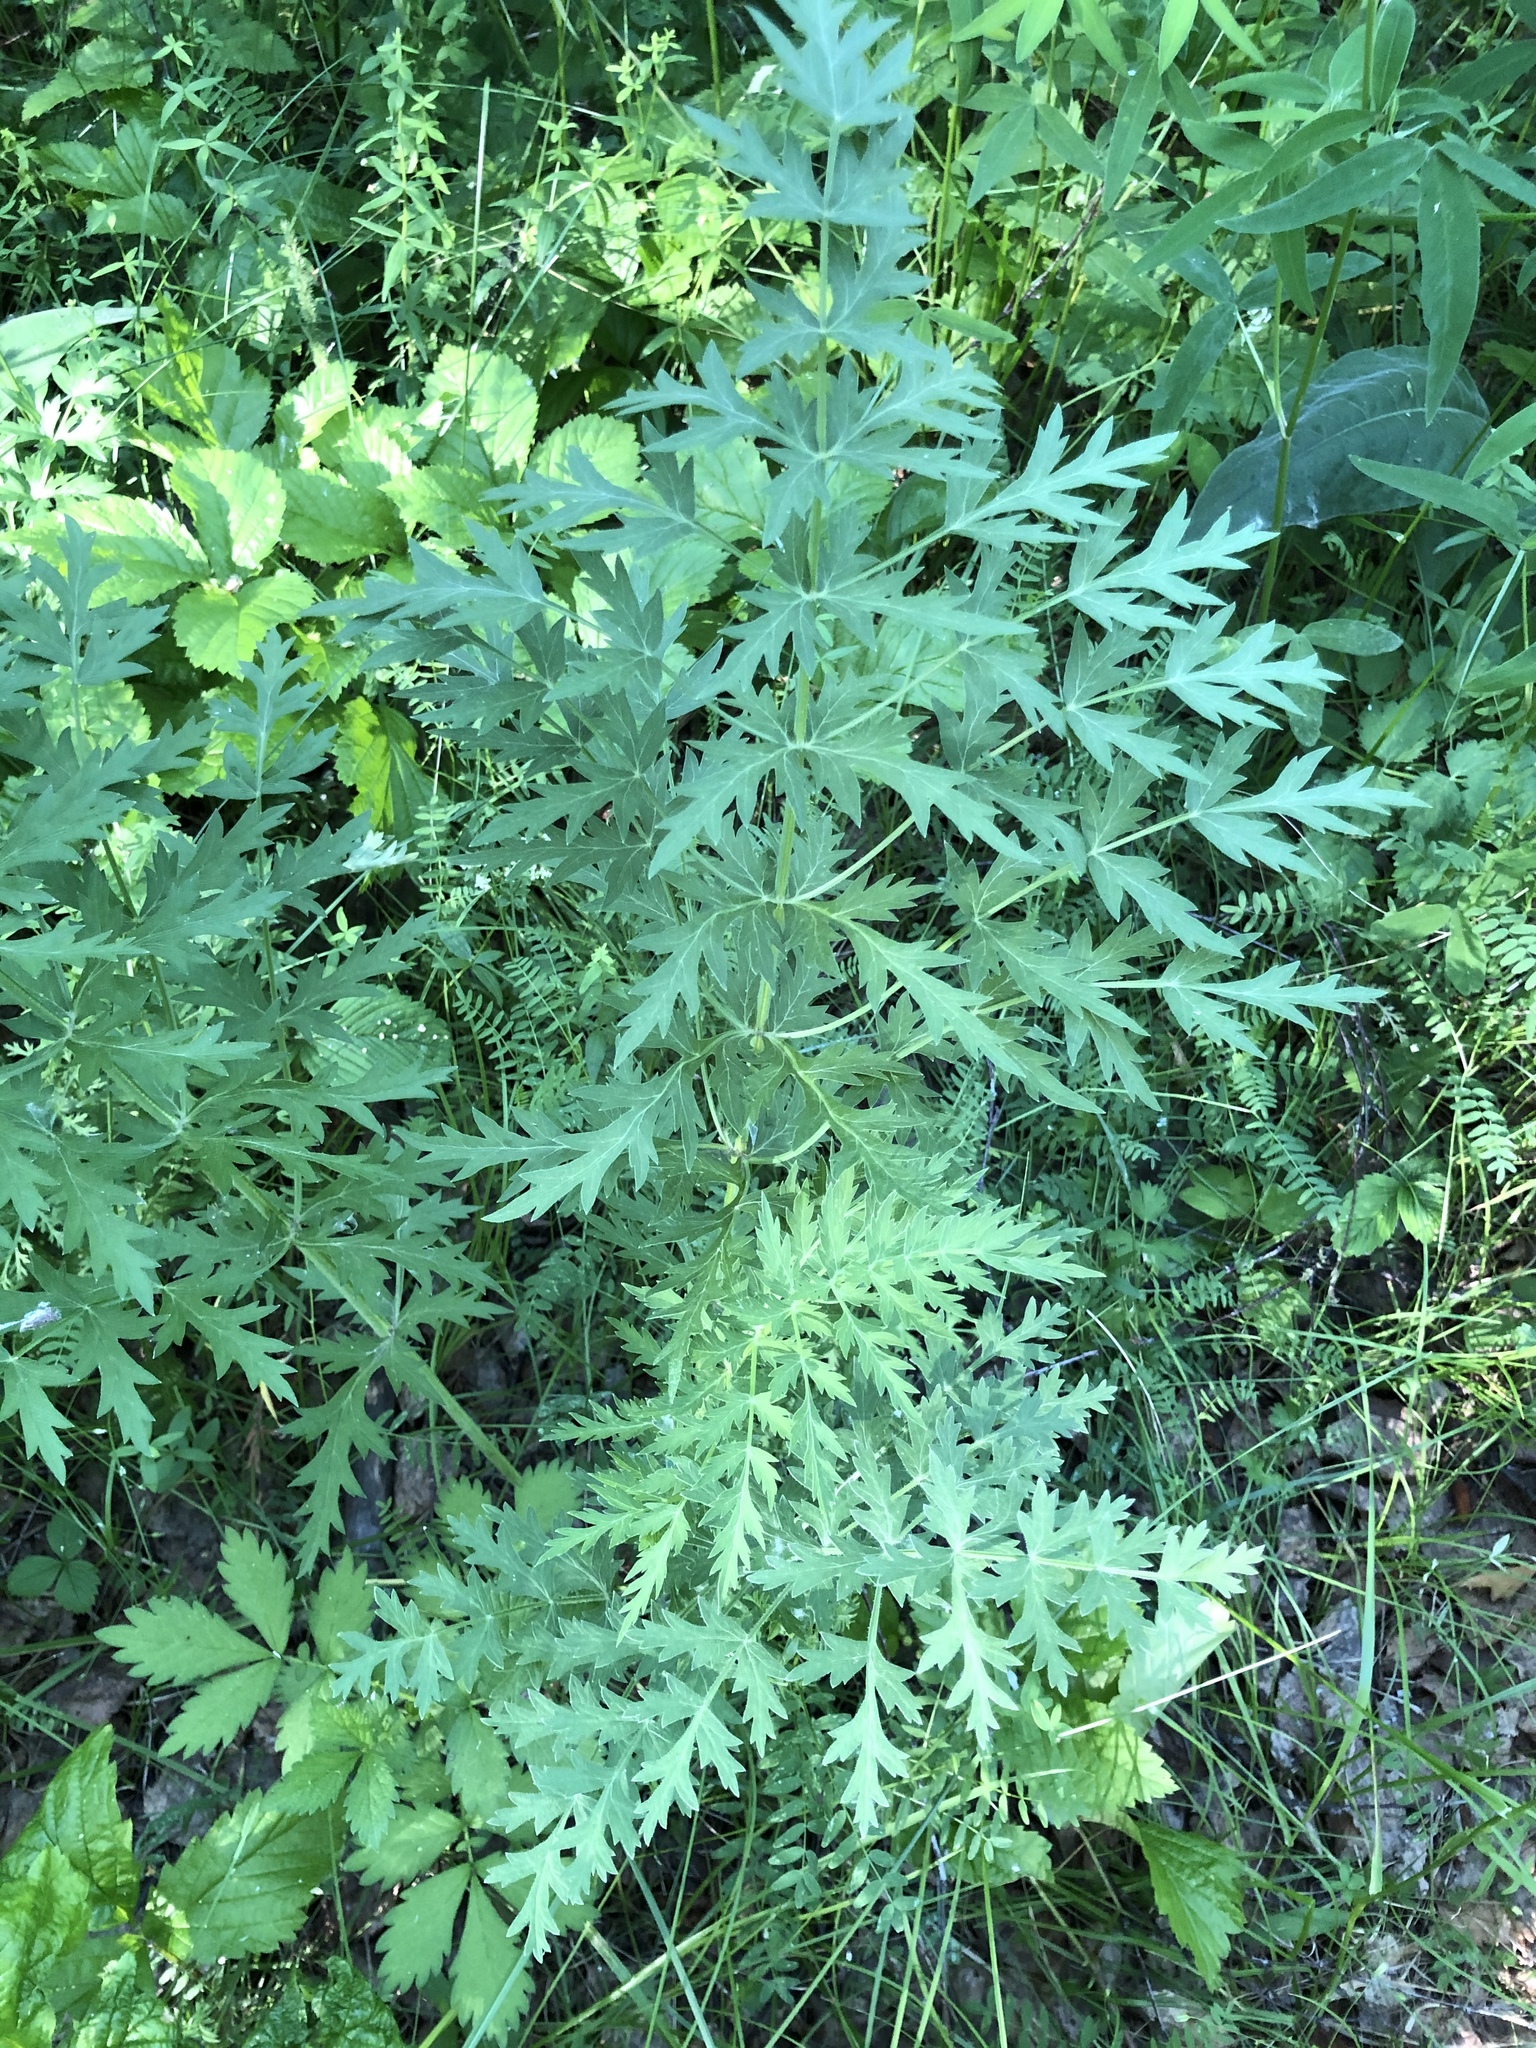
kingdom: Plantae
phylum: Tracheophyta
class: Magnoliopsida
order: Apiales
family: Apiaceae
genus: Seseli
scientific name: Seseli libanotis
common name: Mooncarrot
